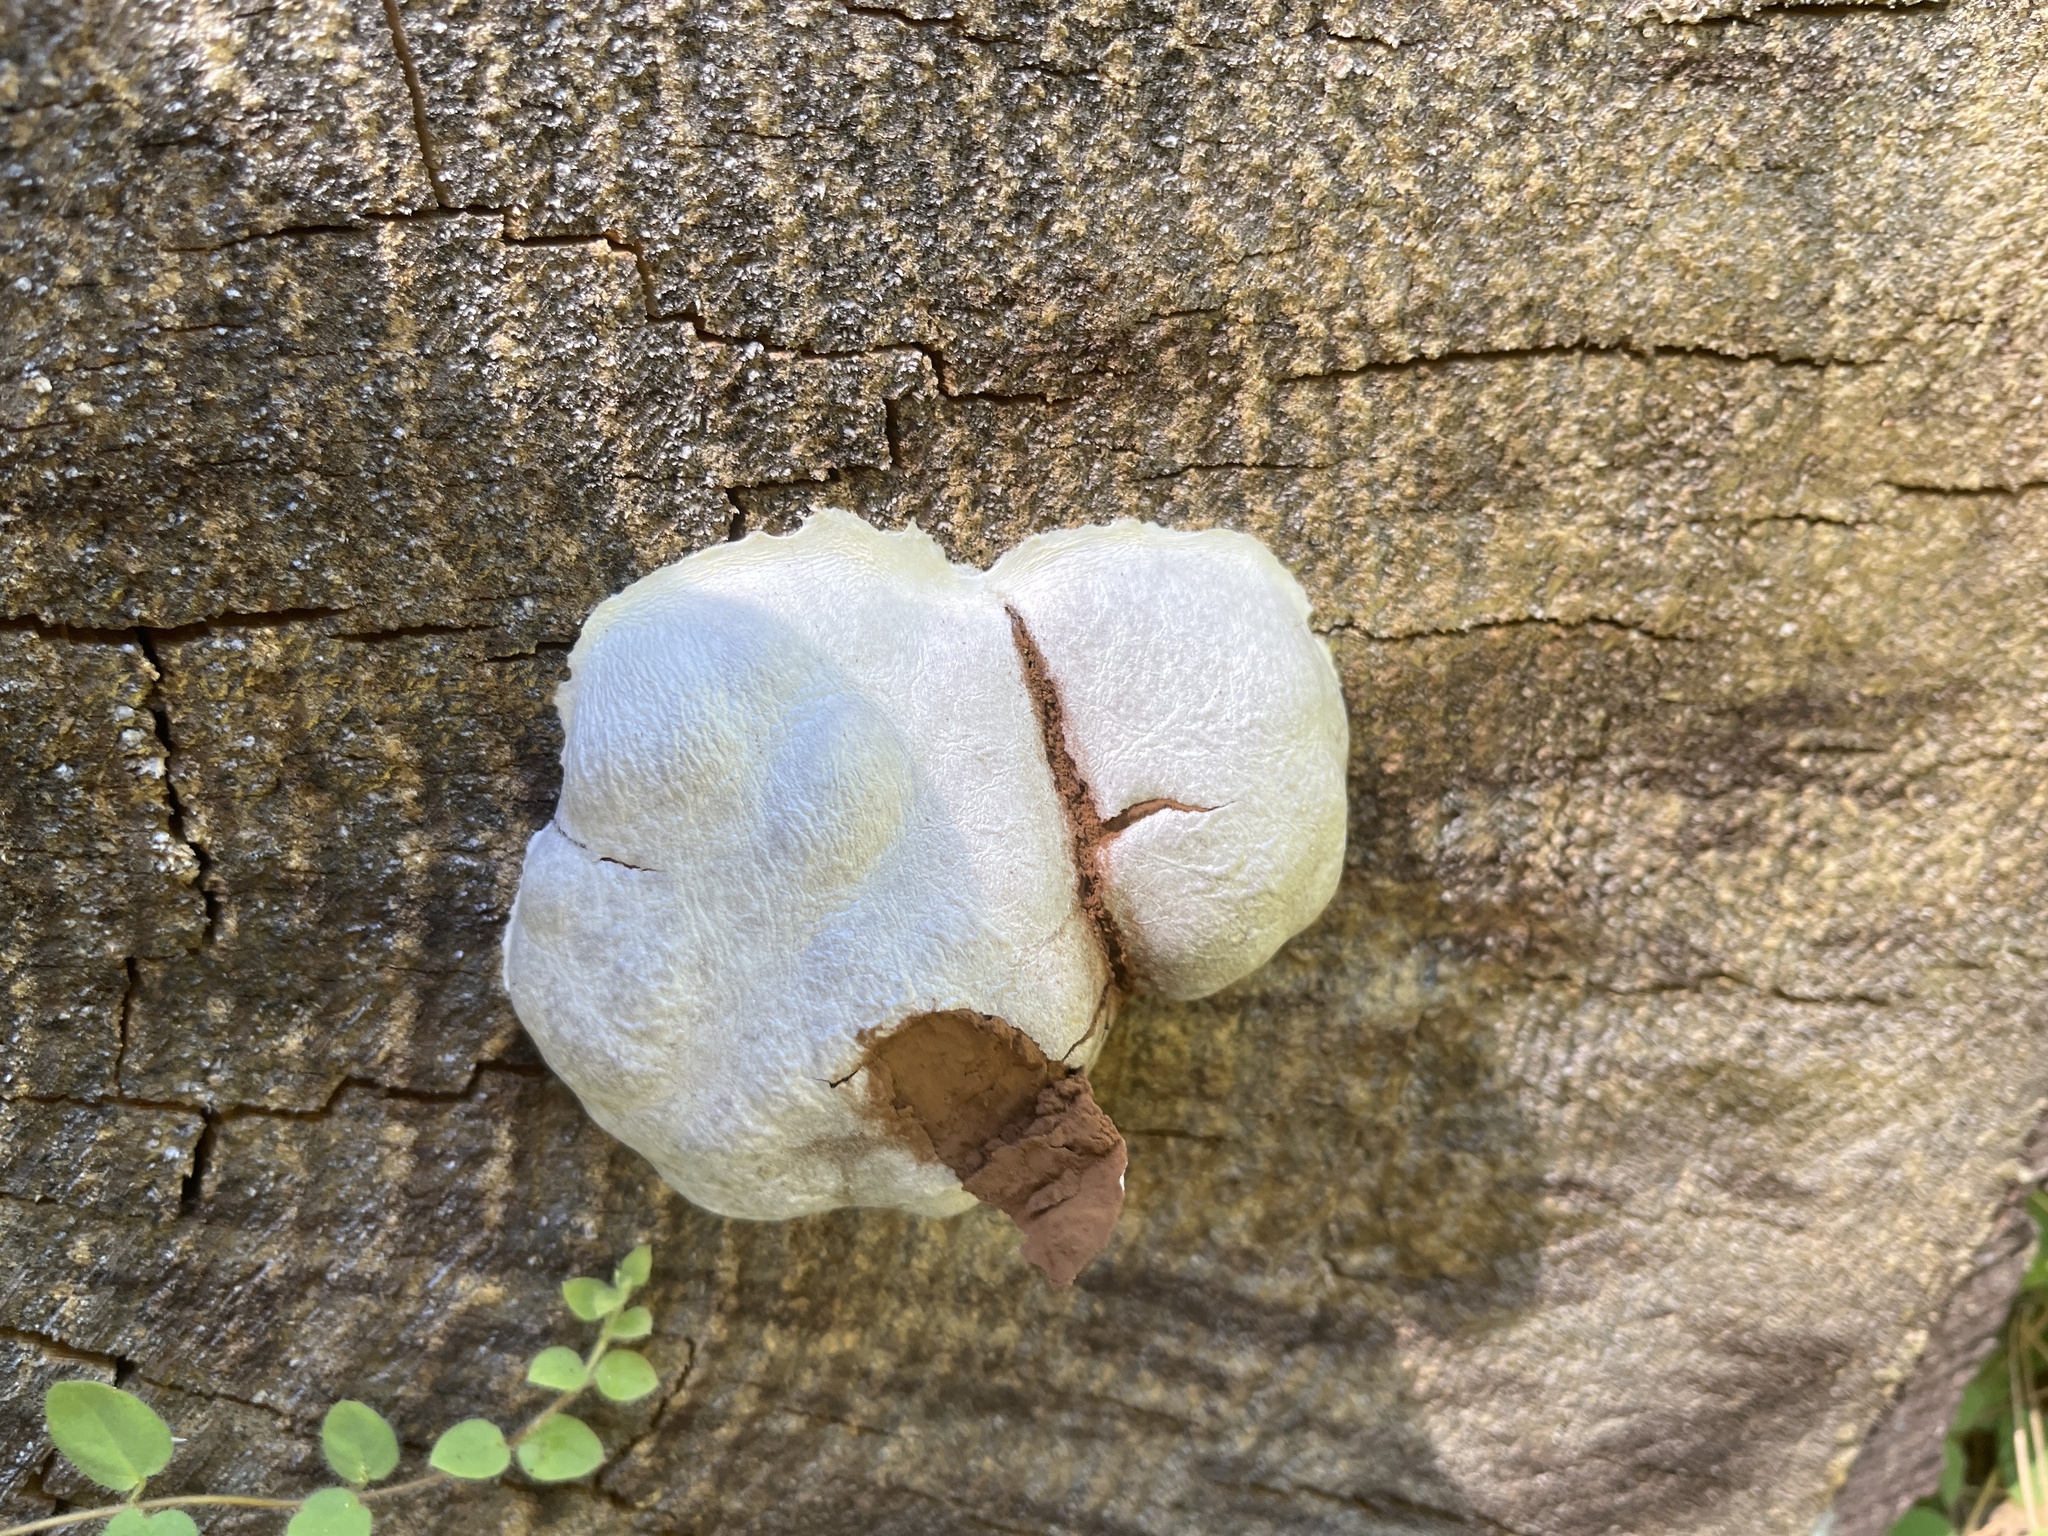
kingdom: Protozoa
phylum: Mycetozoa
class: Myxomycetes
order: Cribrariales
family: Tubiferaceae
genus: Reticularia
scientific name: Reticularia lycoperdon
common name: False puffball
